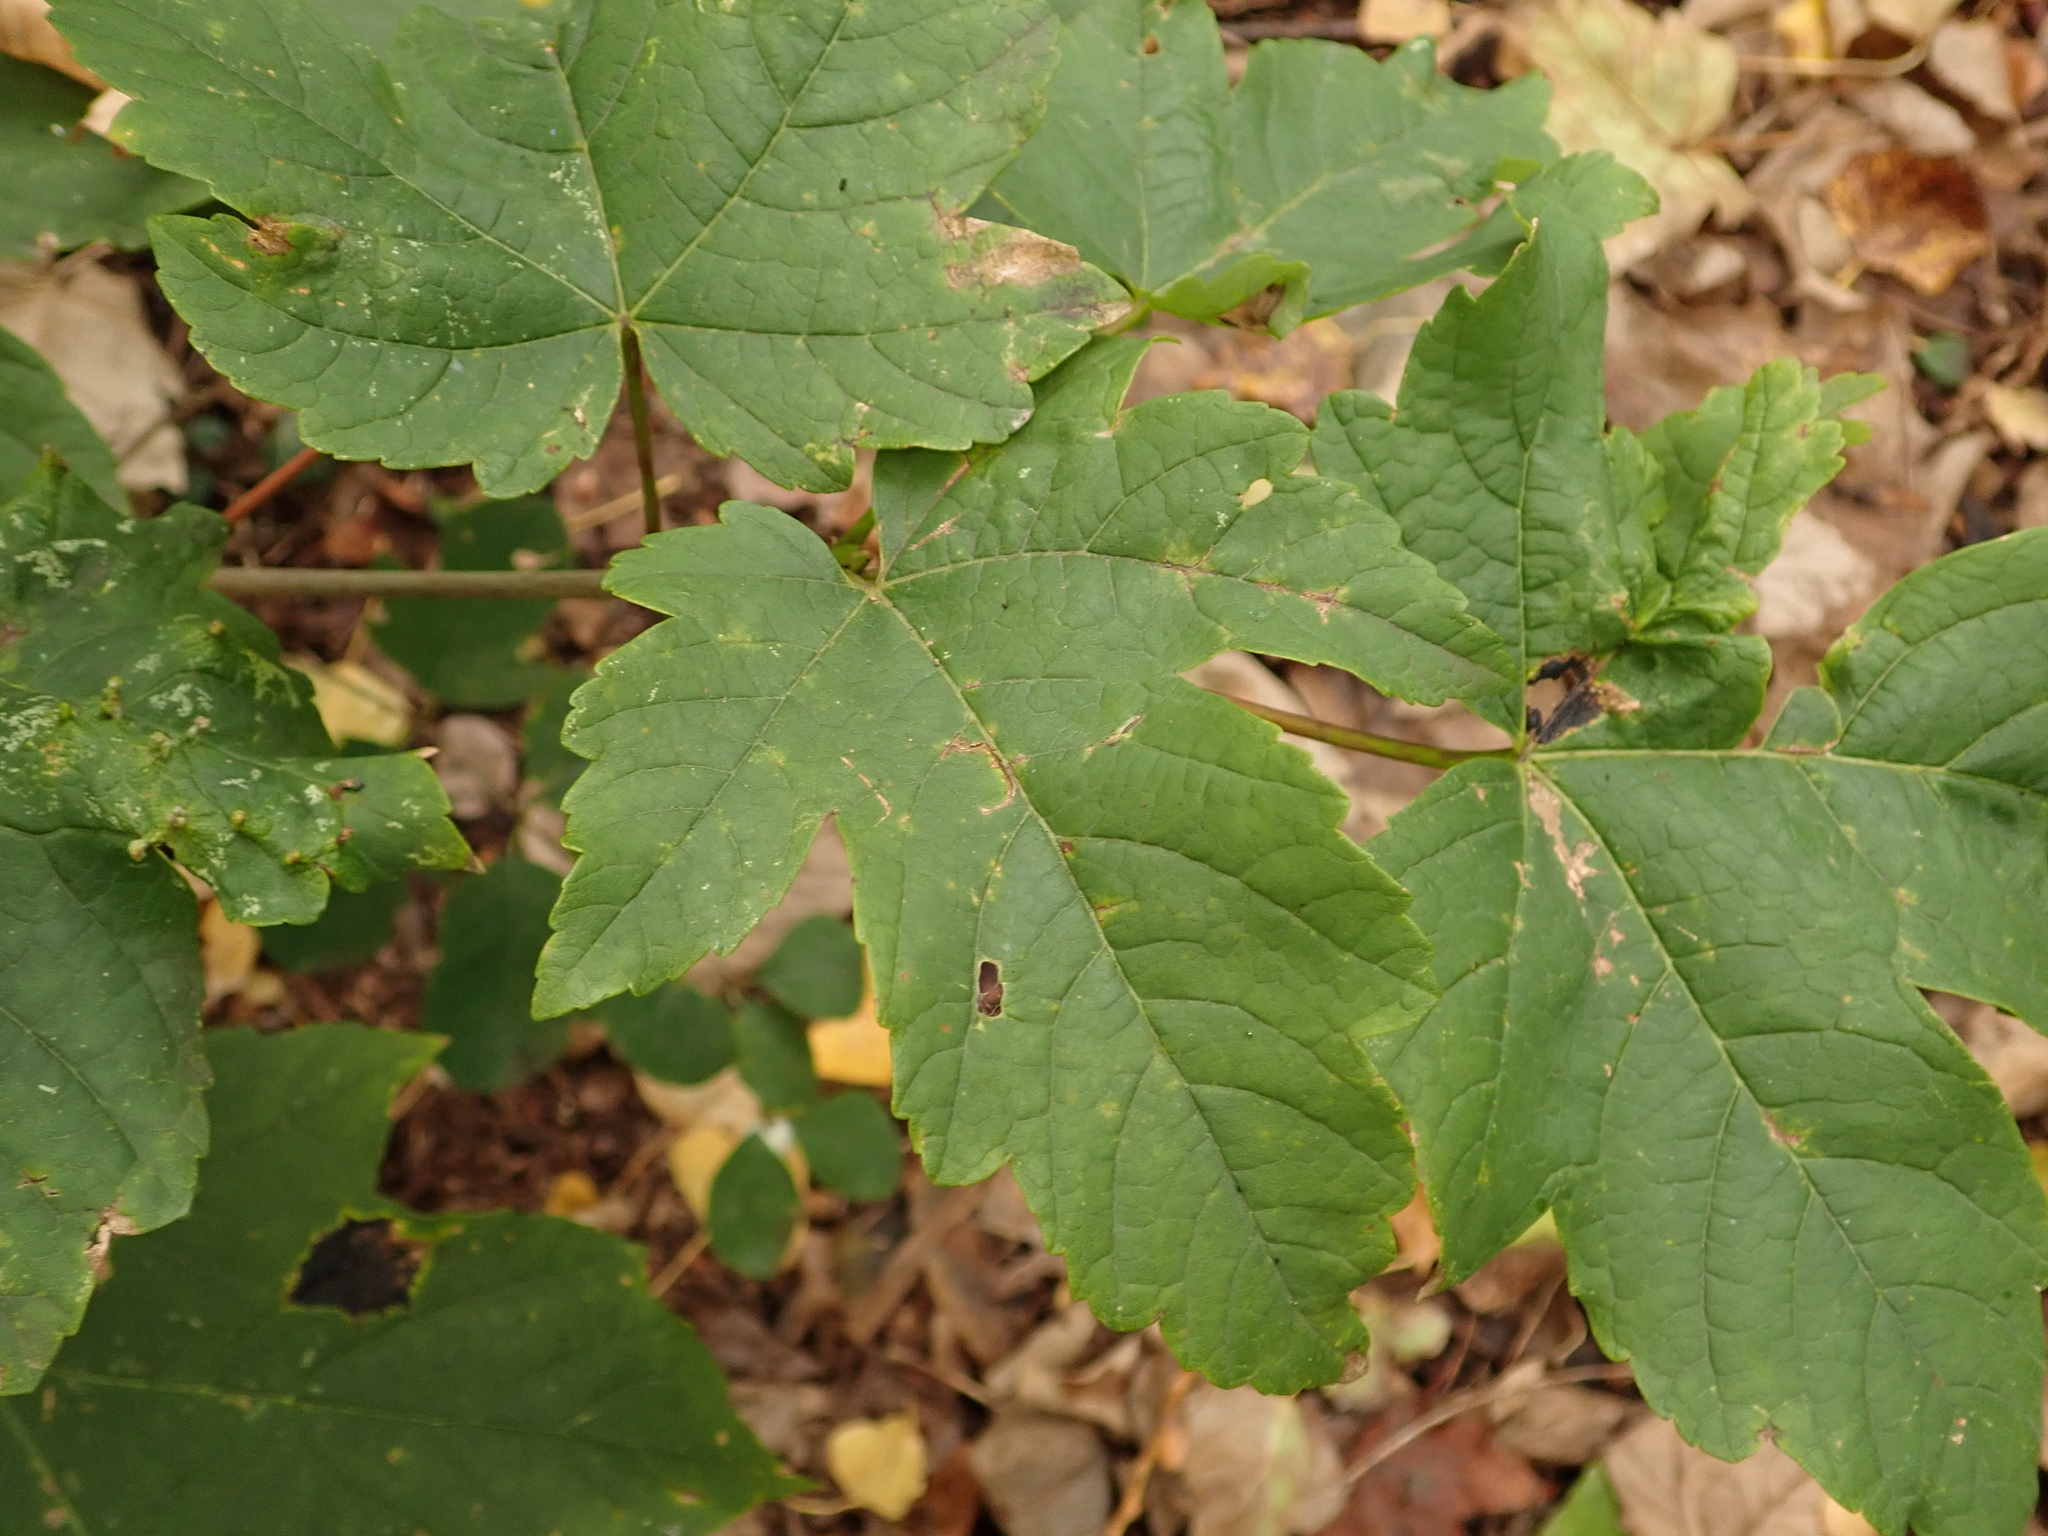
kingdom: Plantae
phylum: Tracheophyta
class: Magnoliopsida
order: Sapindales
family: Sapindaceae
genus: Acer
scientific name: Acer pseudoplatanus
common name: Sycamore
